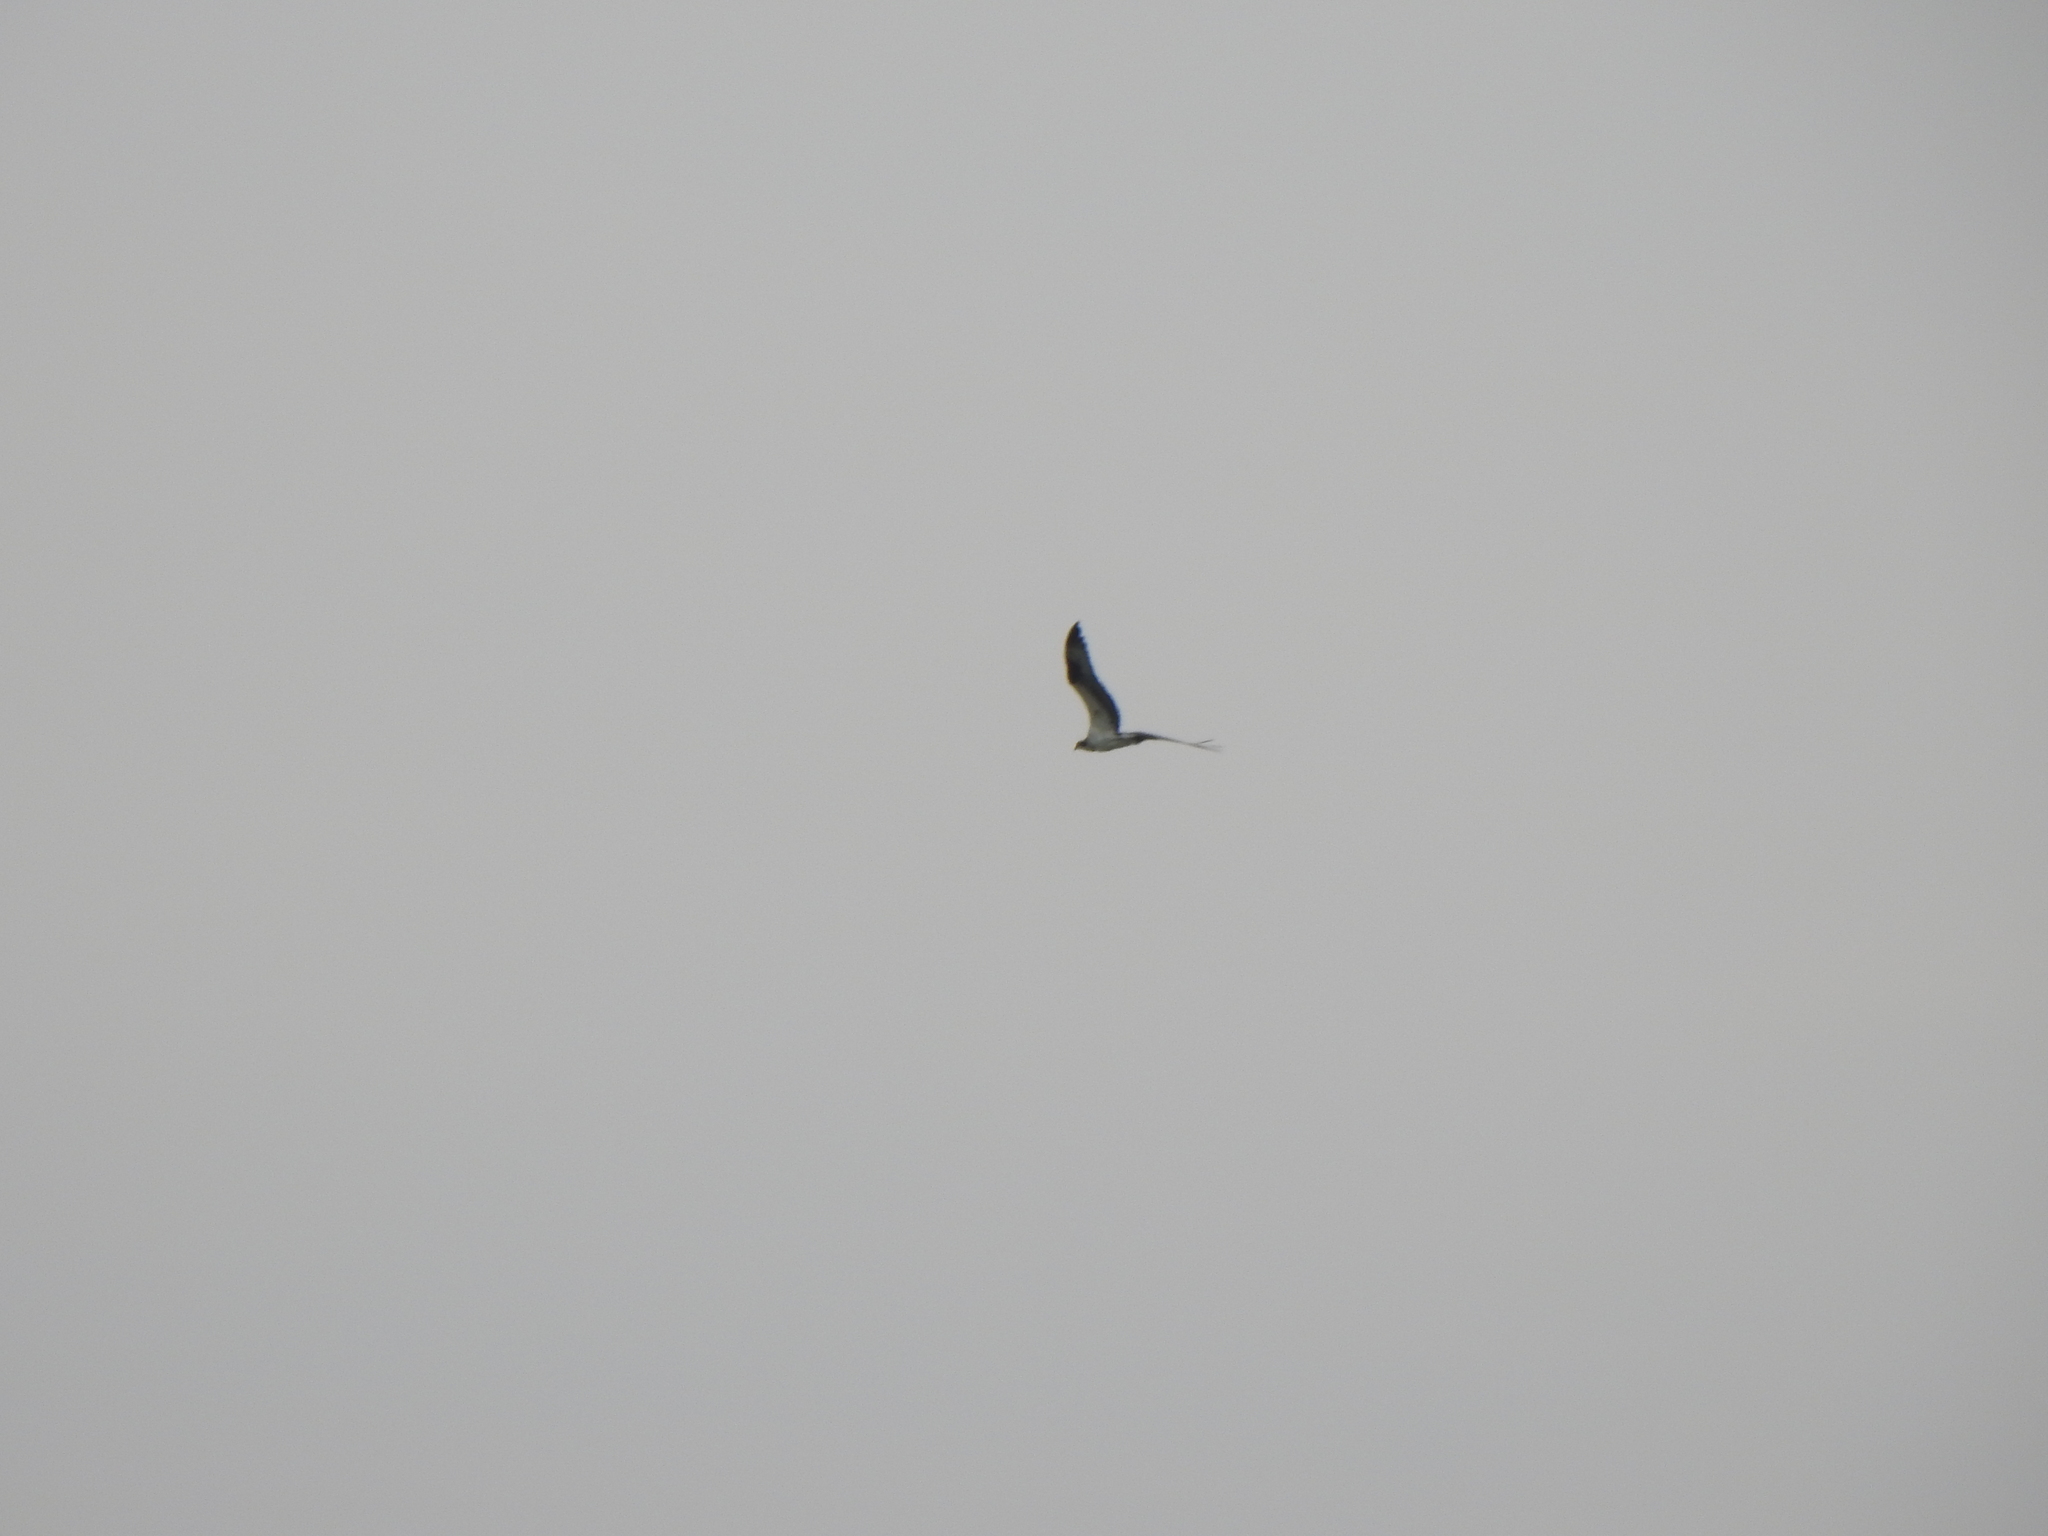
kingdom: Animalia
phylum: Chordata
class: Aves
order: Accipitriformes
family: Pandionidae
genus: Pandion
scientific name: Pandion haliaetus
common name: Osprey
